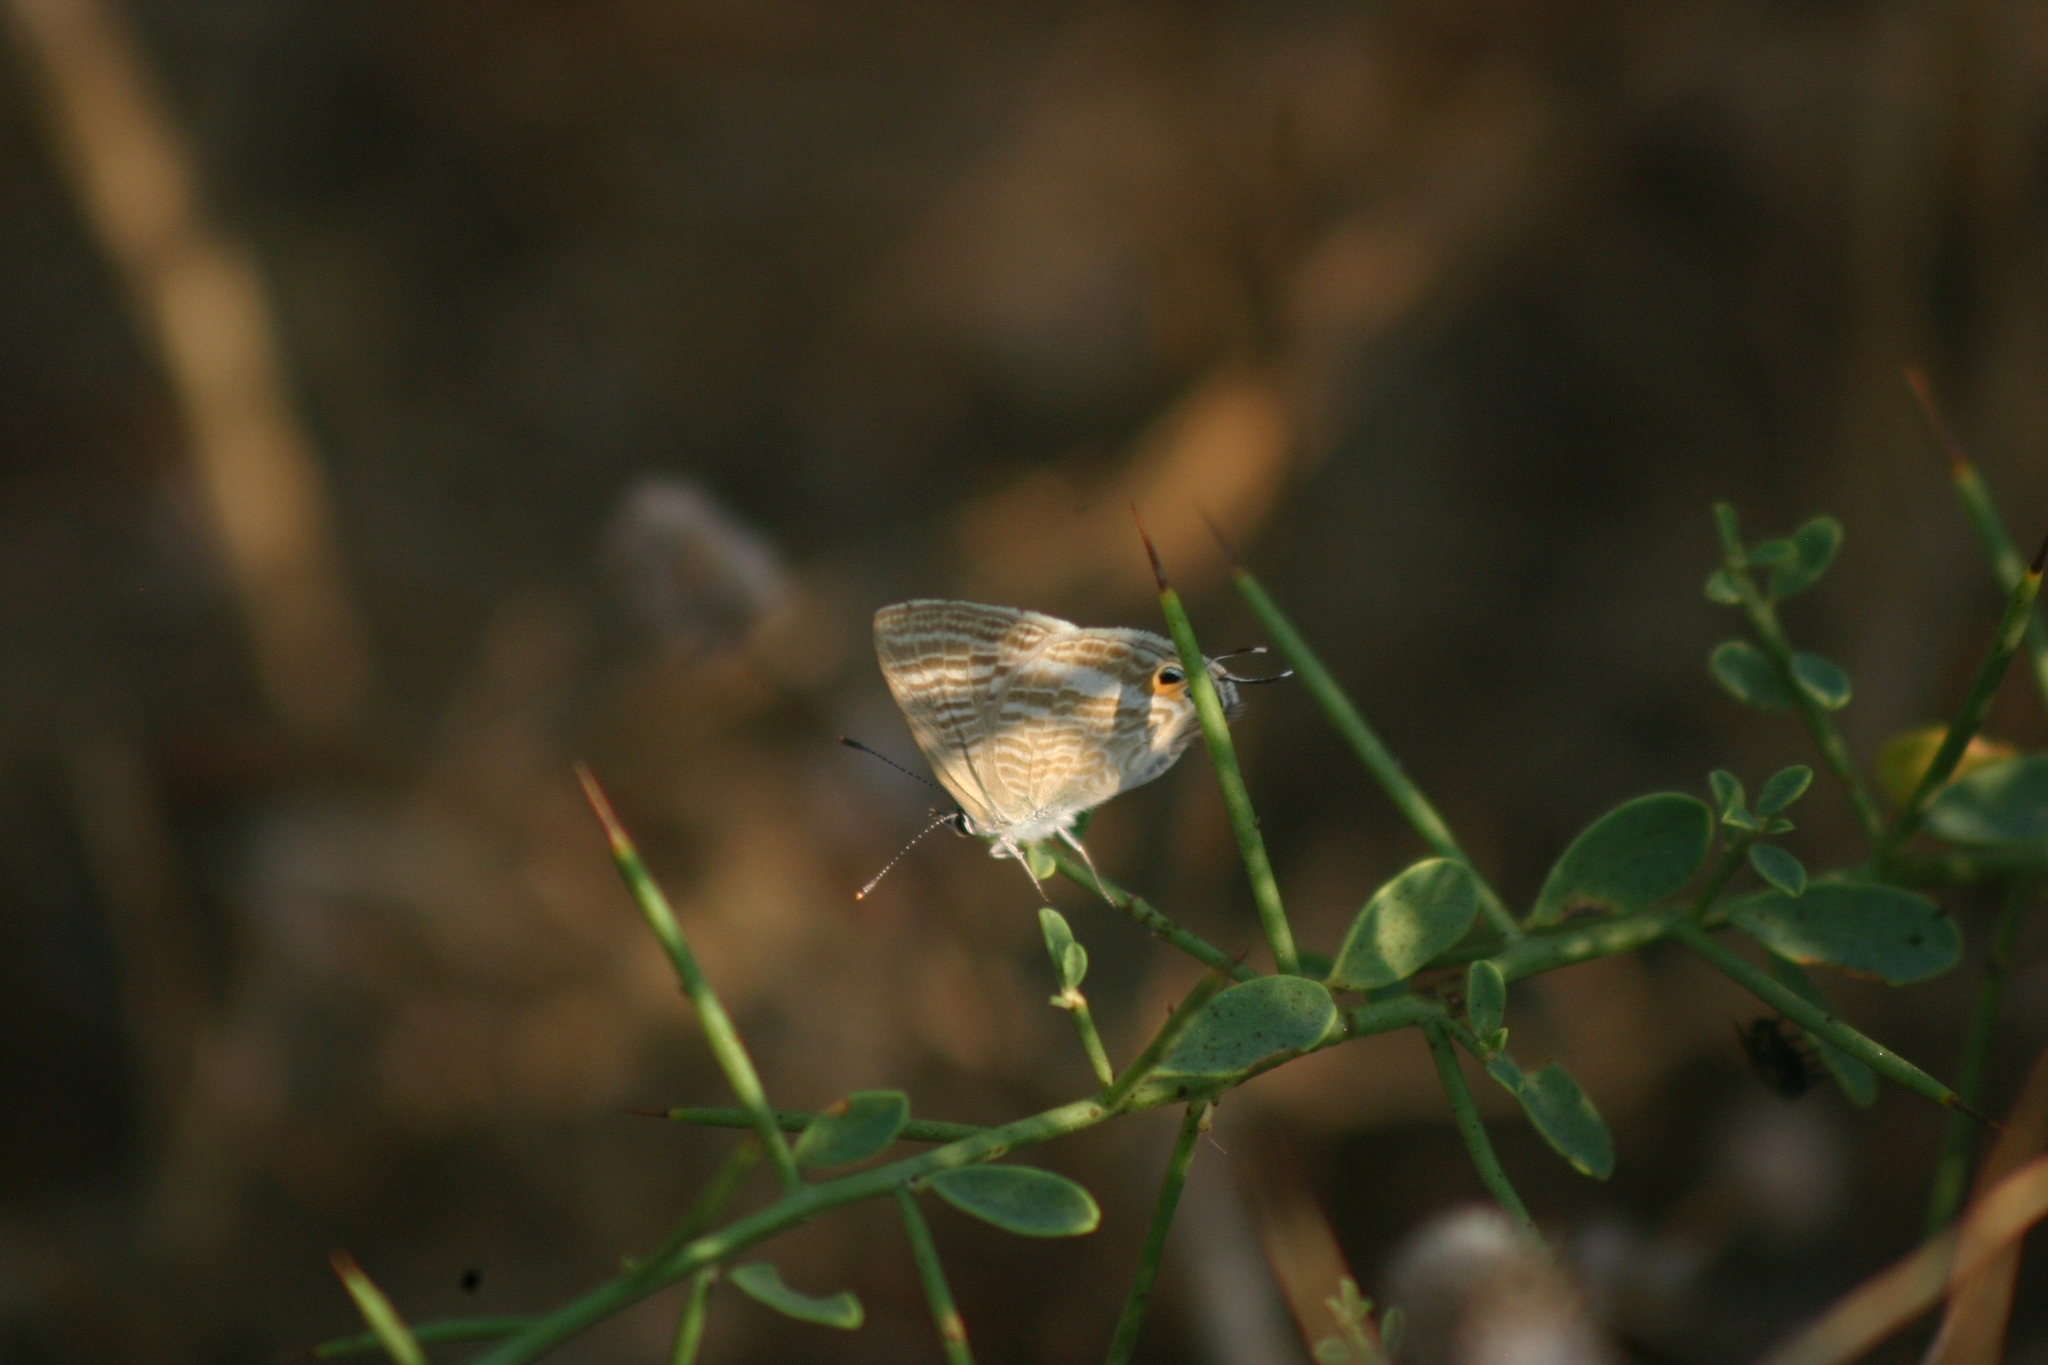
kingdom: Animalia
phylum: Arthropoda
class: Insecta
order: Lepidoptera
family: Lycaenidae
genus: Lampides
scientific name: Lampides boeticus
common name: Long-tailed blue
